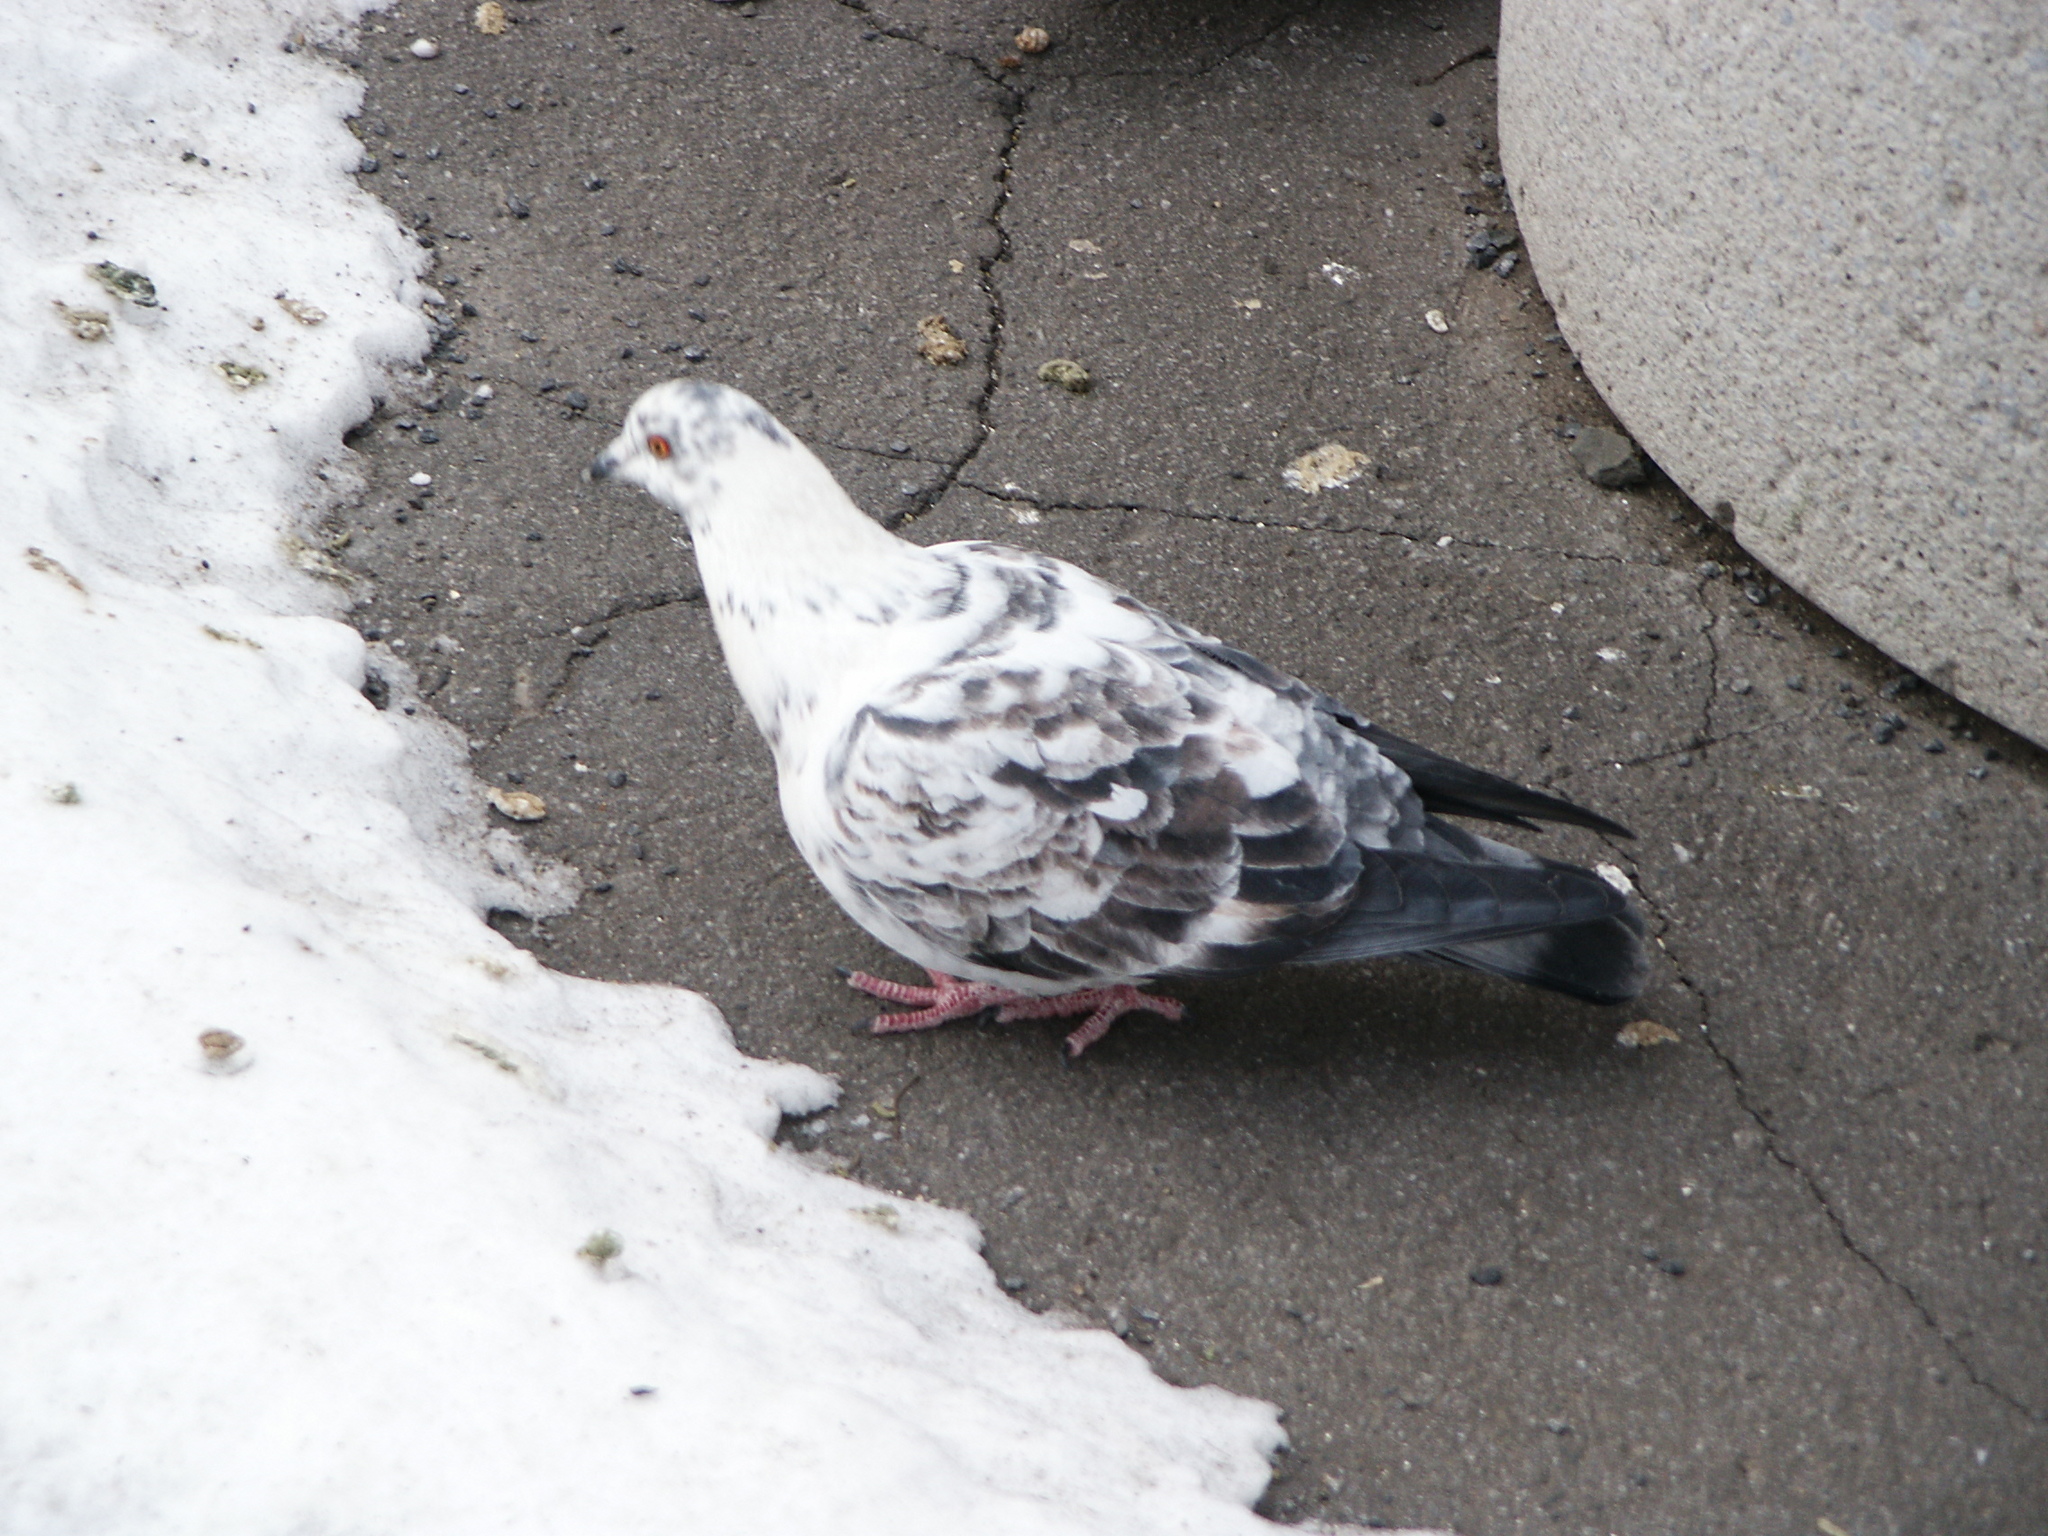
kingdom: Animalia
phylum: Chordata
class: Aves
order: Columbiformes
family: Columbidae
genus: Columba
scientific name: Columba livia
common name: Rock pigeon
